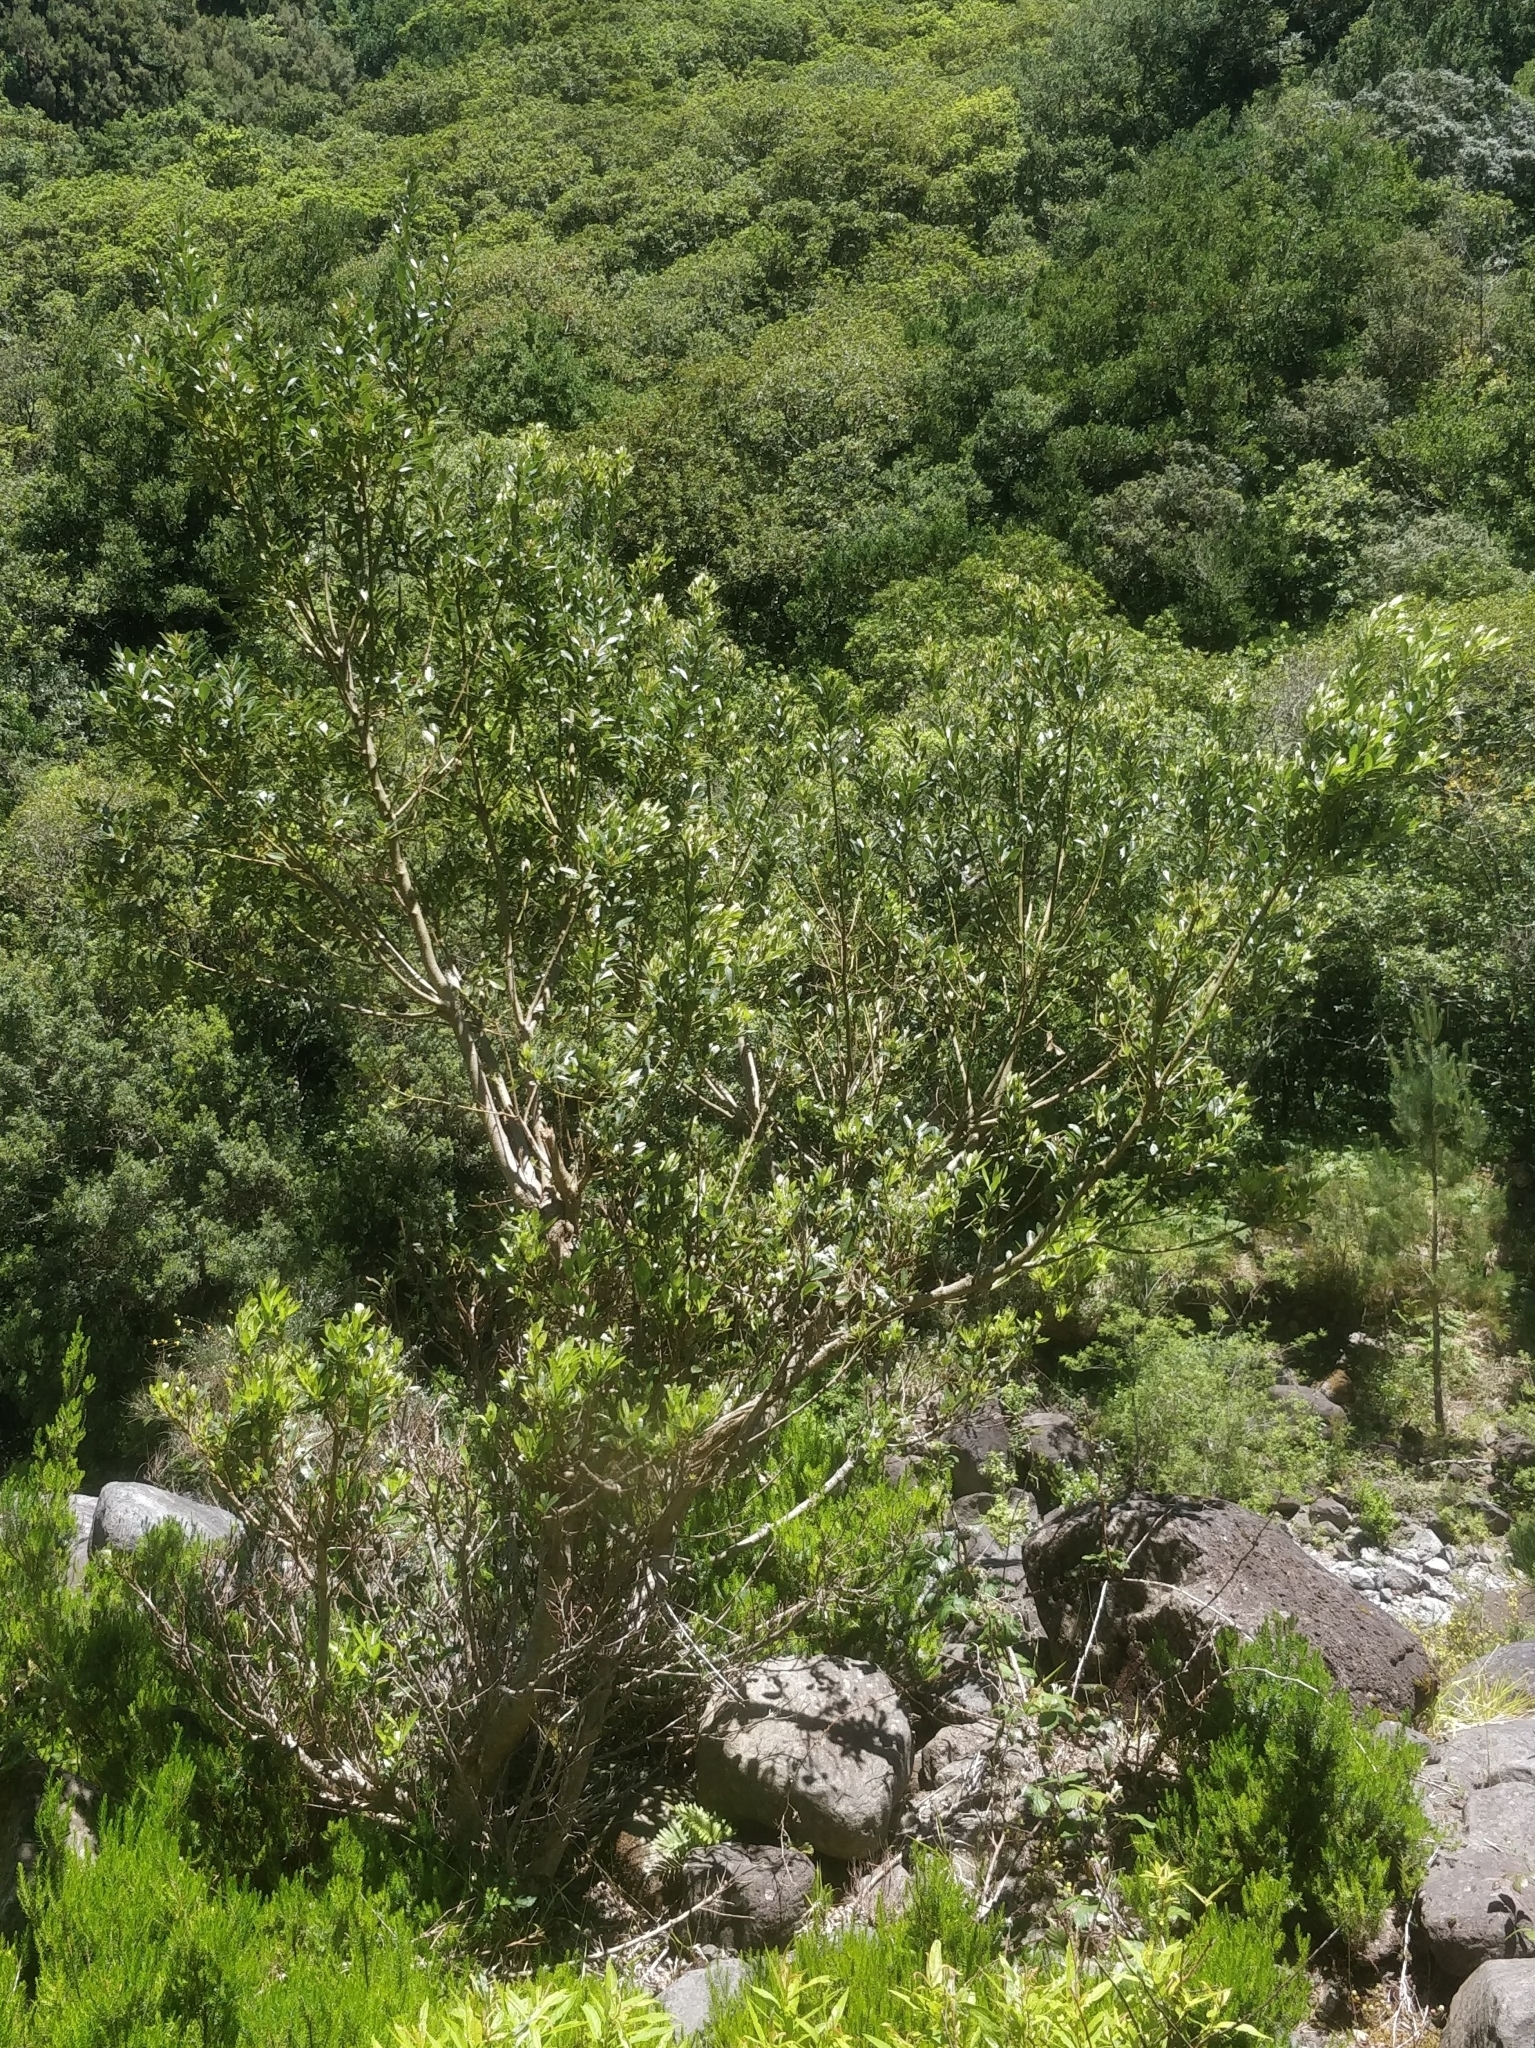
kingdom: Plantae
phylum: Tracheophyta
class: Magnoliopsida
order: Fagales
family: Myricaceae
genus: Morella
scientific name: Morella faya
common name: Firetree
